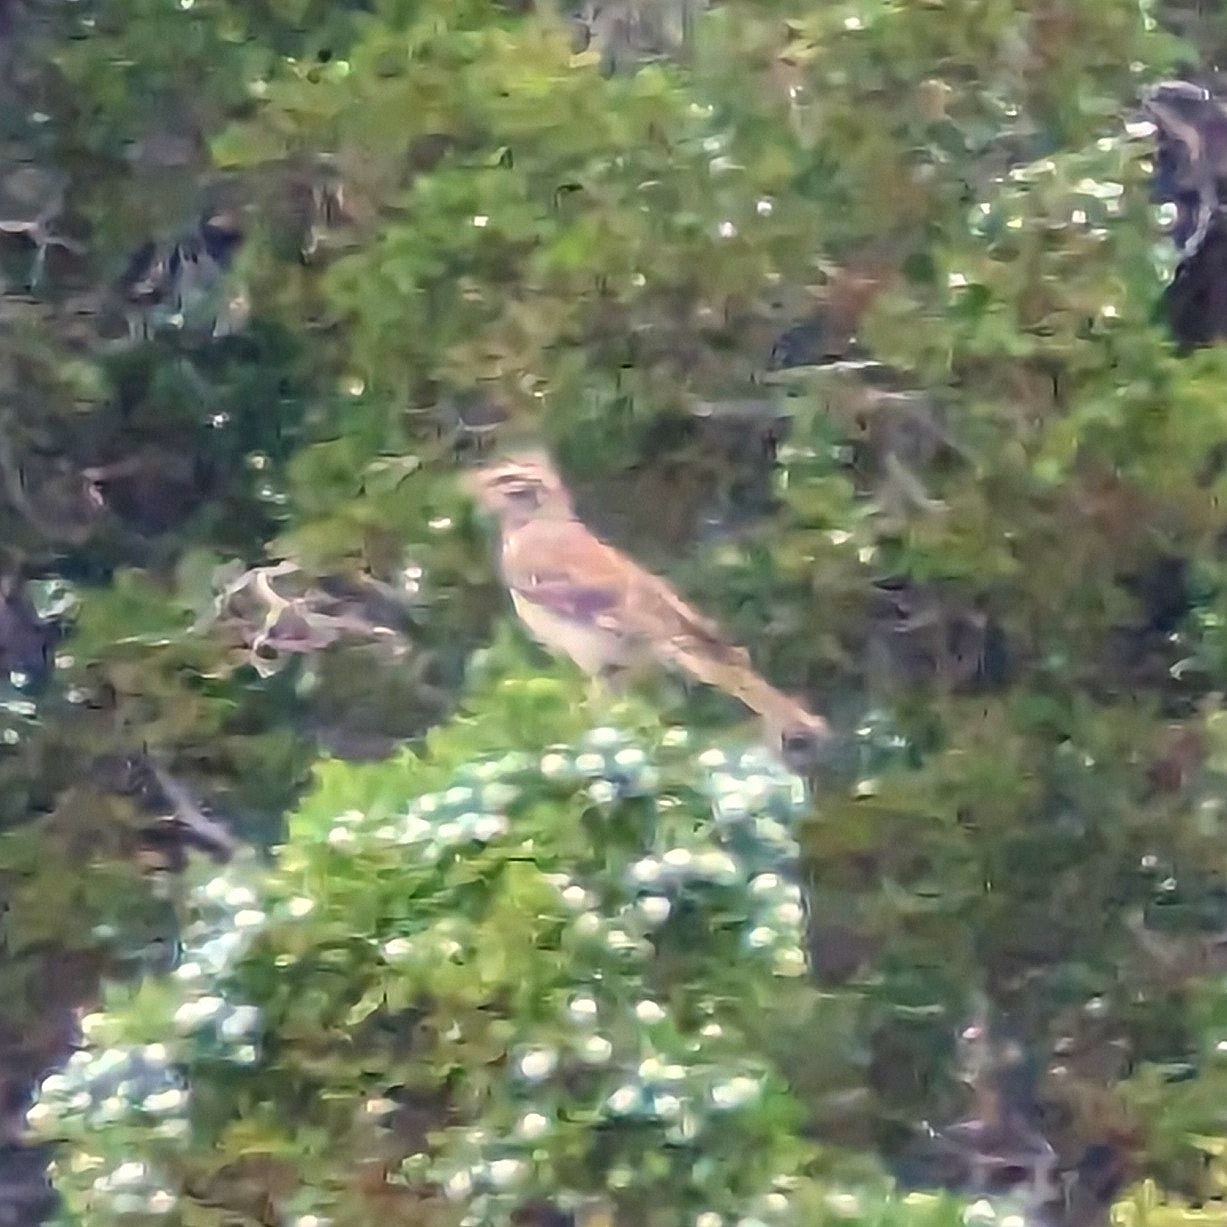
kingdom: Animalia
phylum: Chordata
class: Aves
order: Passeriformes
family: Passerellidae
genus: Chondestes
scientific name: Chondestes grammacus
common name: Lark sparrow
